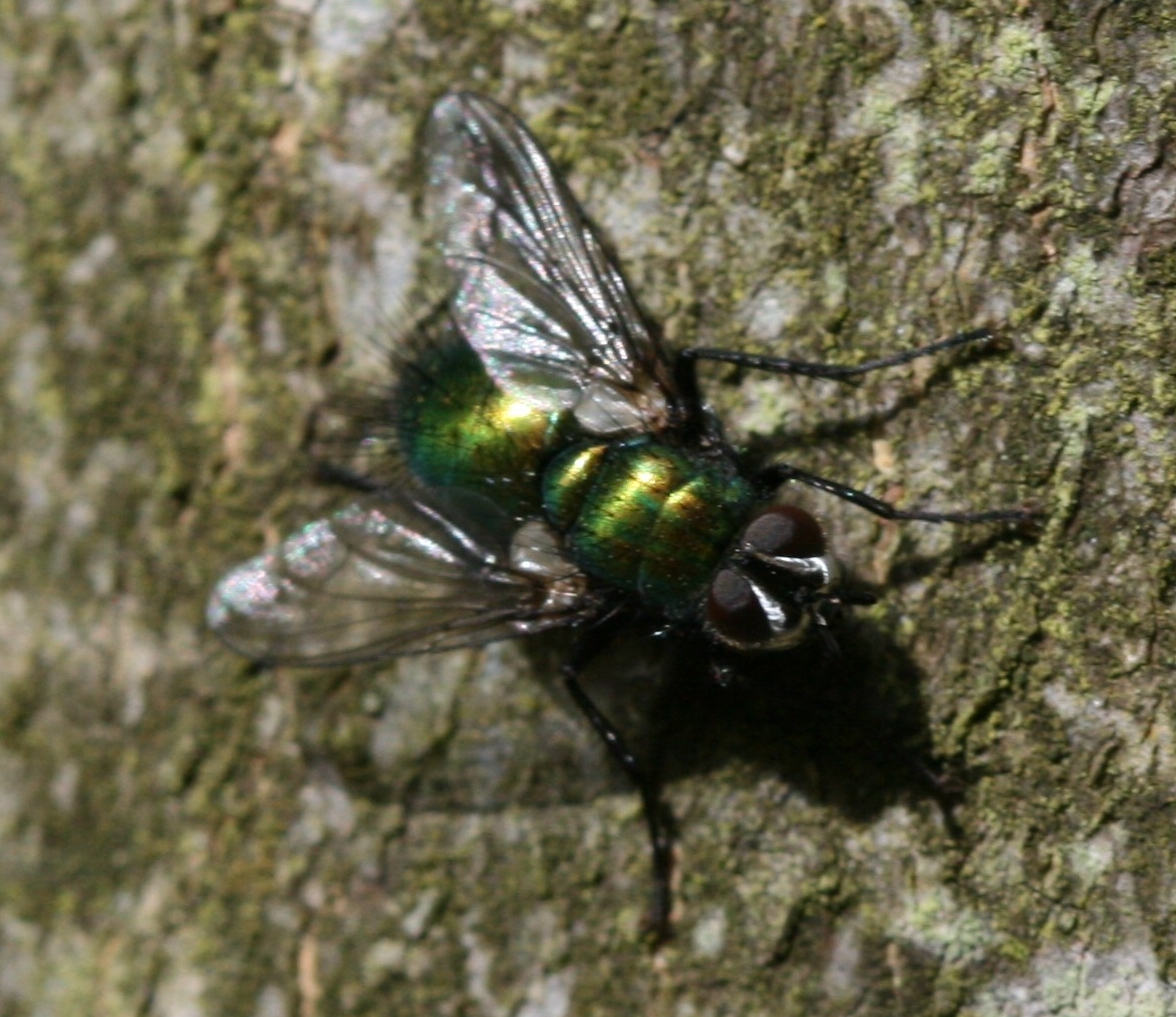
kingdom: Animalia
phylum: Arthropoda
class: Insecta
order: Diptera
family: Tachinidae
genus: Gymnocheta
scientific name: Gymnocheta viridis
